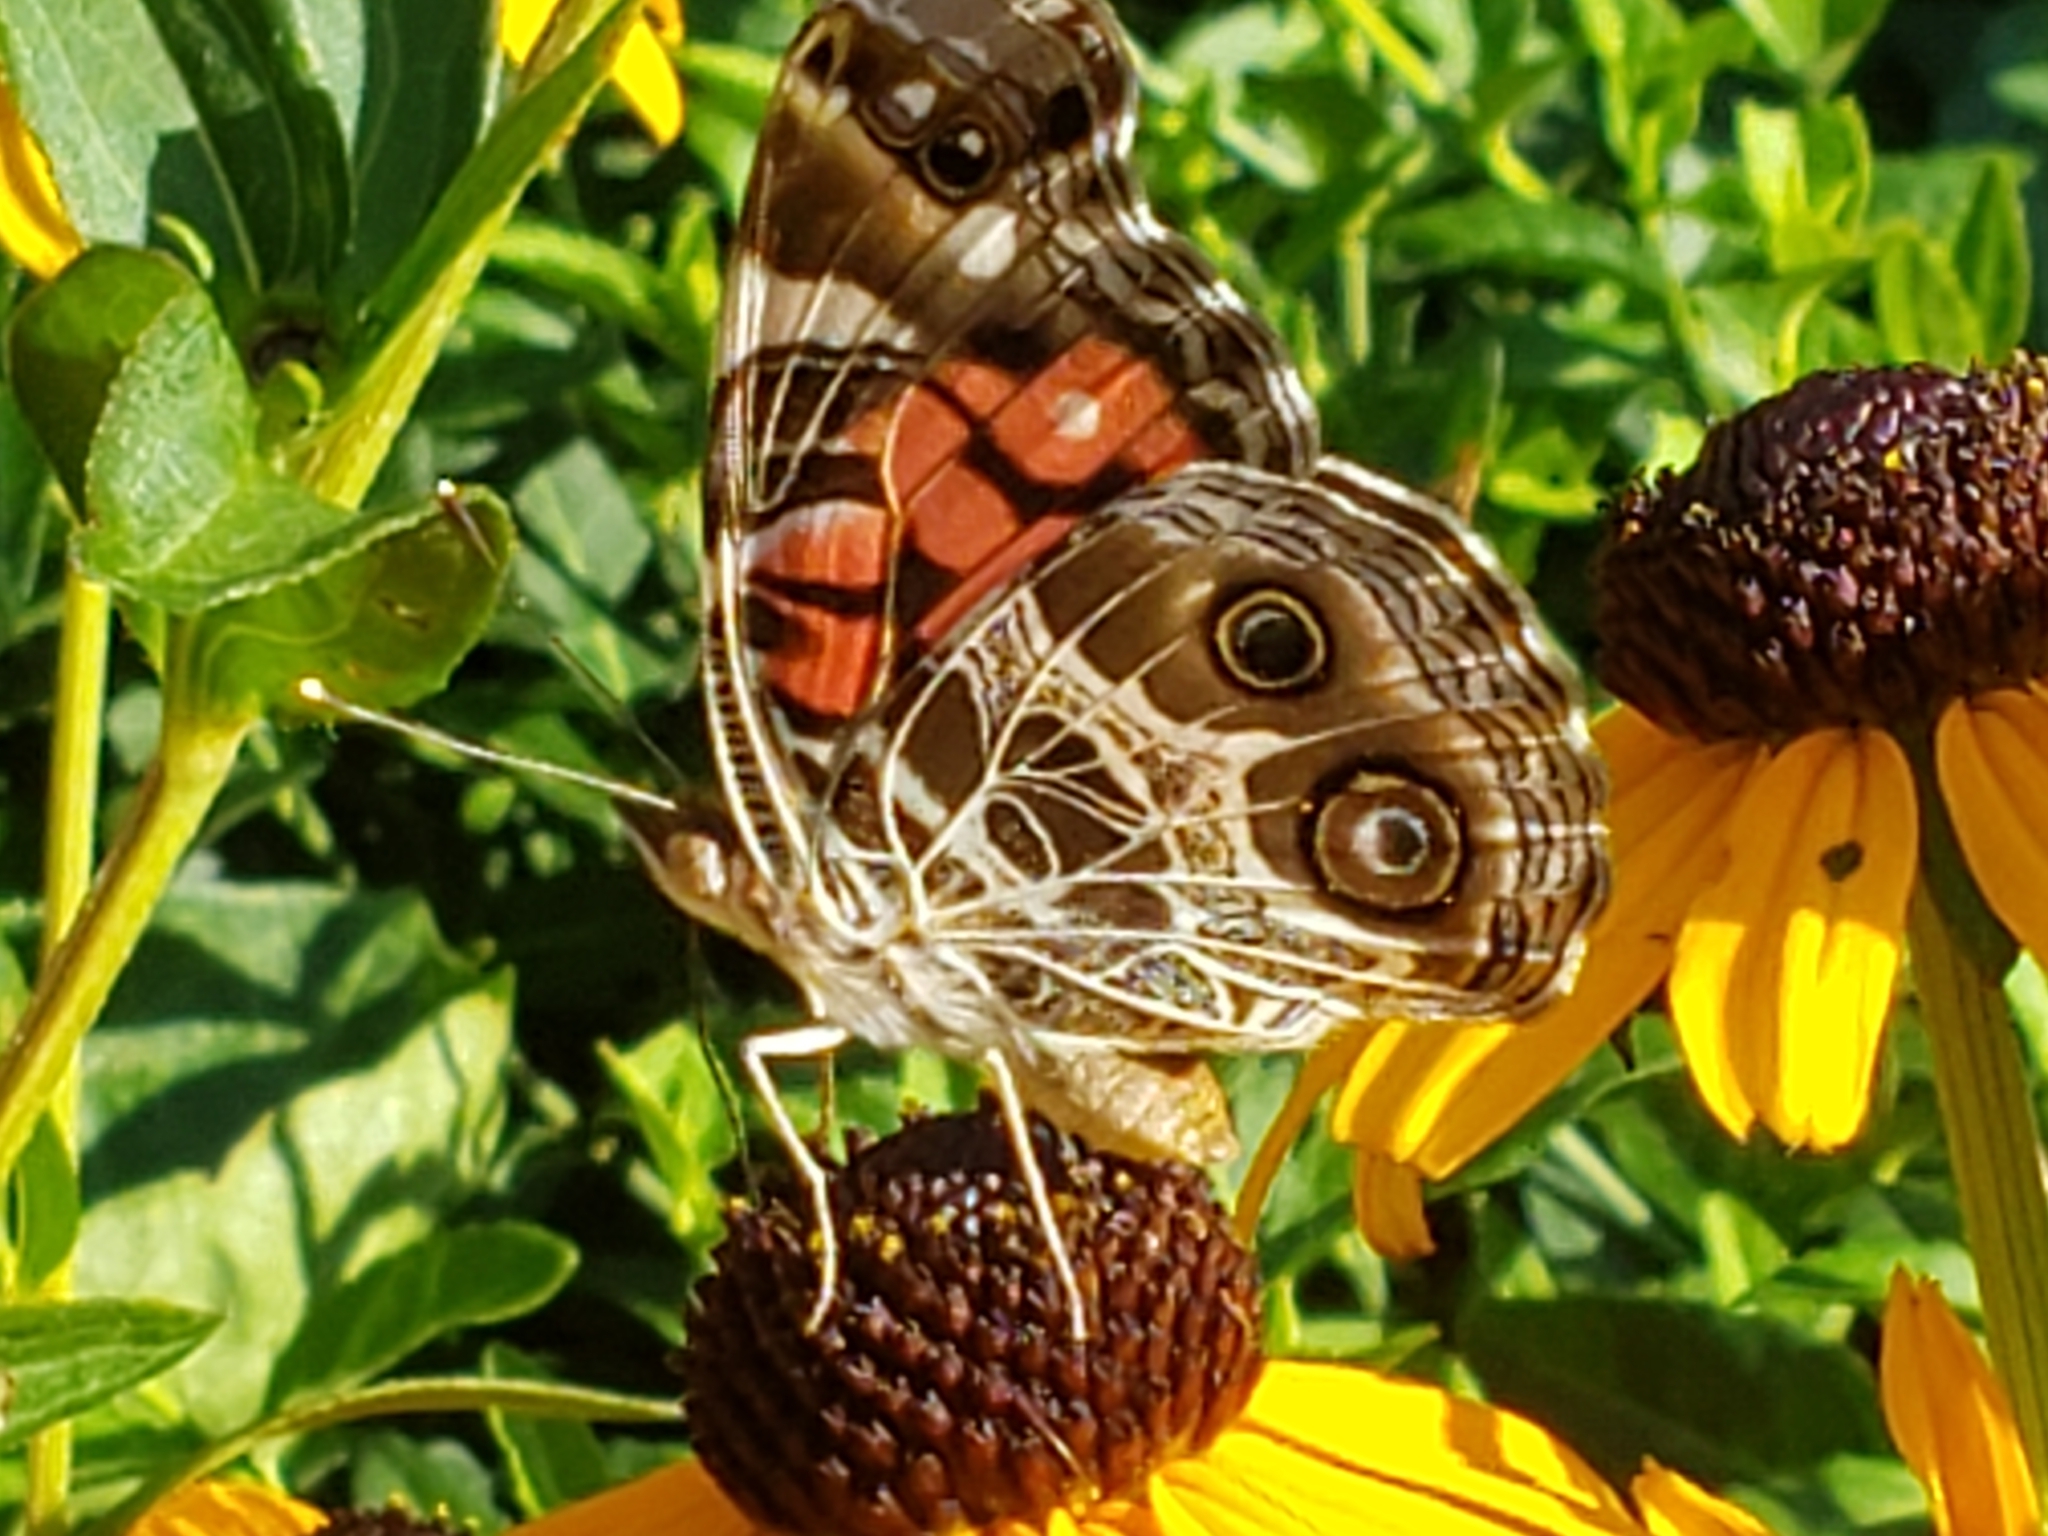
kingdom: Animalia
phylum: Arthropoda
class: Insecta
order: Lepidoptera
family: Nymphalidae
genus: Vanessa
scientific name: Vanessa virginiensis
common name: American lady
